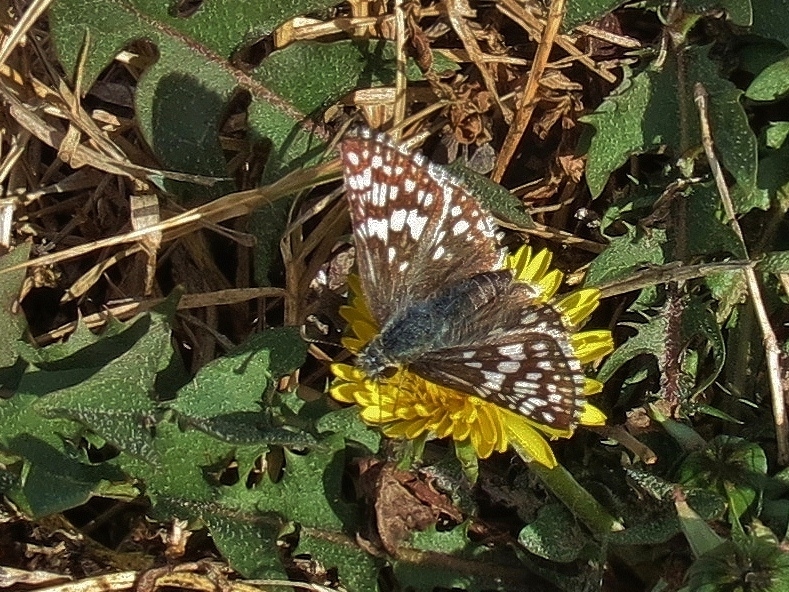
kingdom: Animalia
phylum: Arthropoda
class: Insecta
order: Lepidoptera
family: Hesperiidae
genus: Burnsius
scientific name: Burnsius communis
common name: Common checkered-skipper
